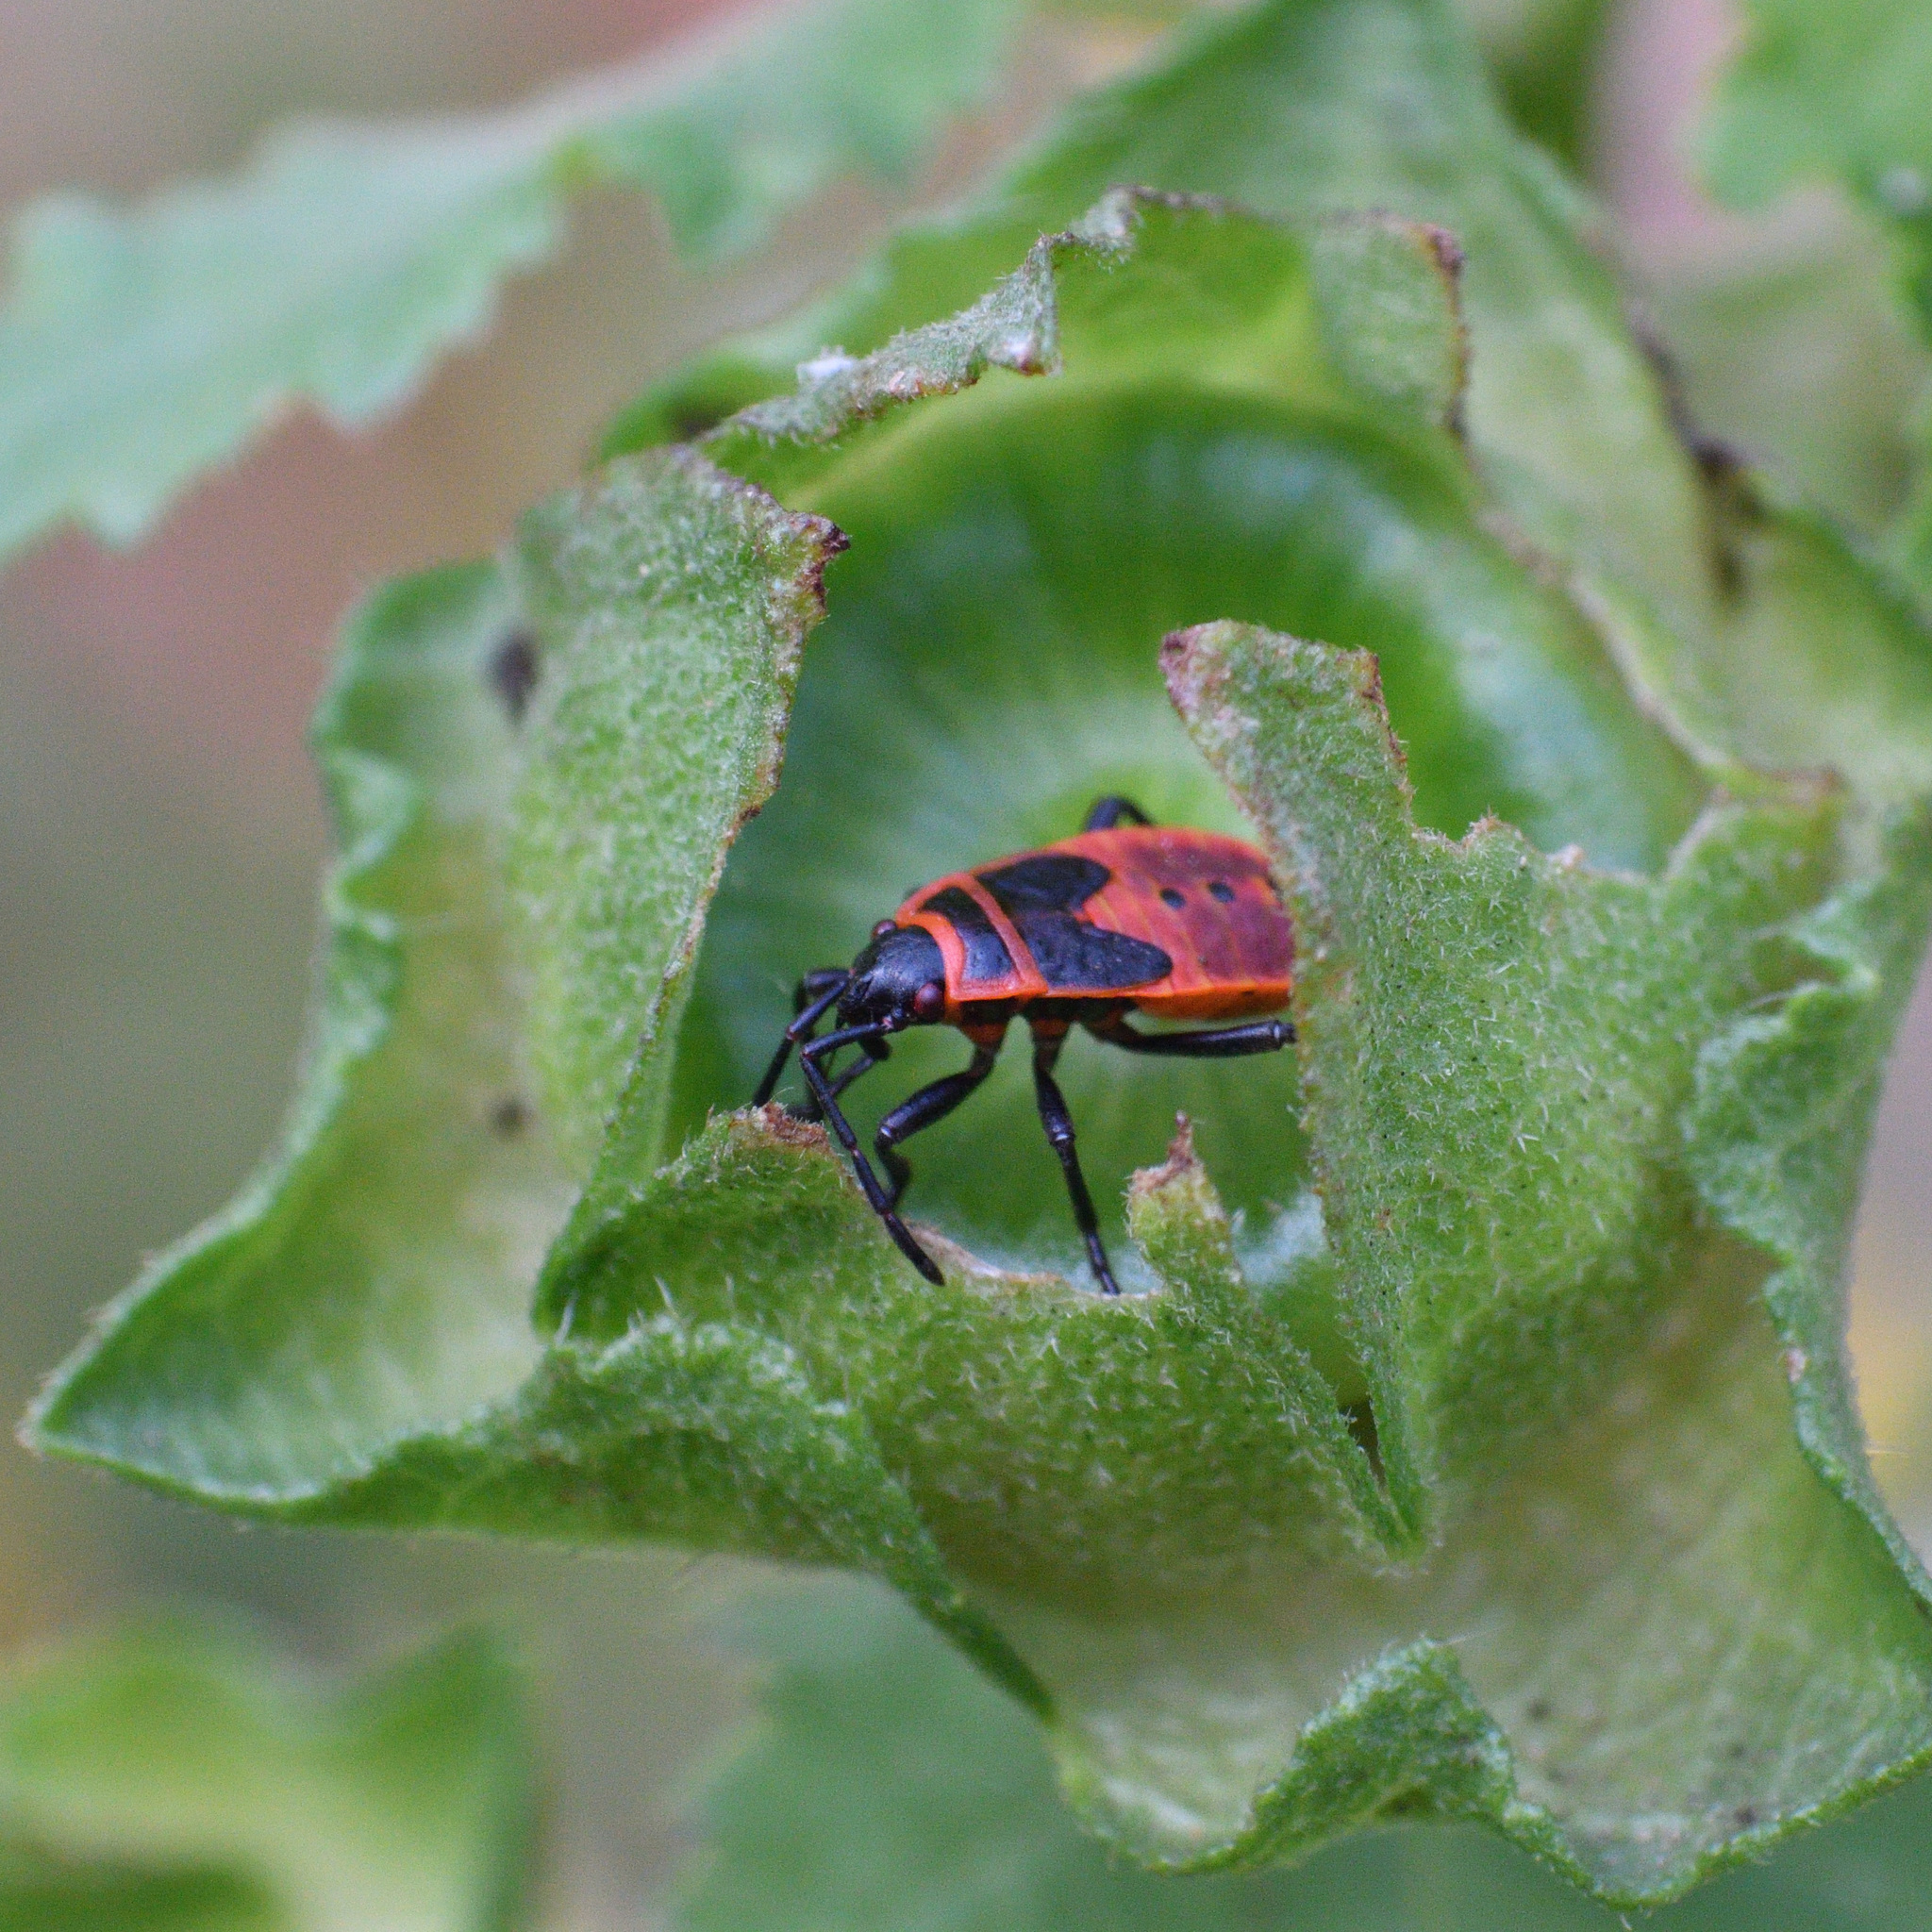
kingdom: Animalia
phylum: Arthropoda
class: Insecta
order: Hemiptera
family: Pyrrhocoridae
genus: Pyrrhocoris
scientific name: Pyrrhocoris apterus
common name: Firebug
